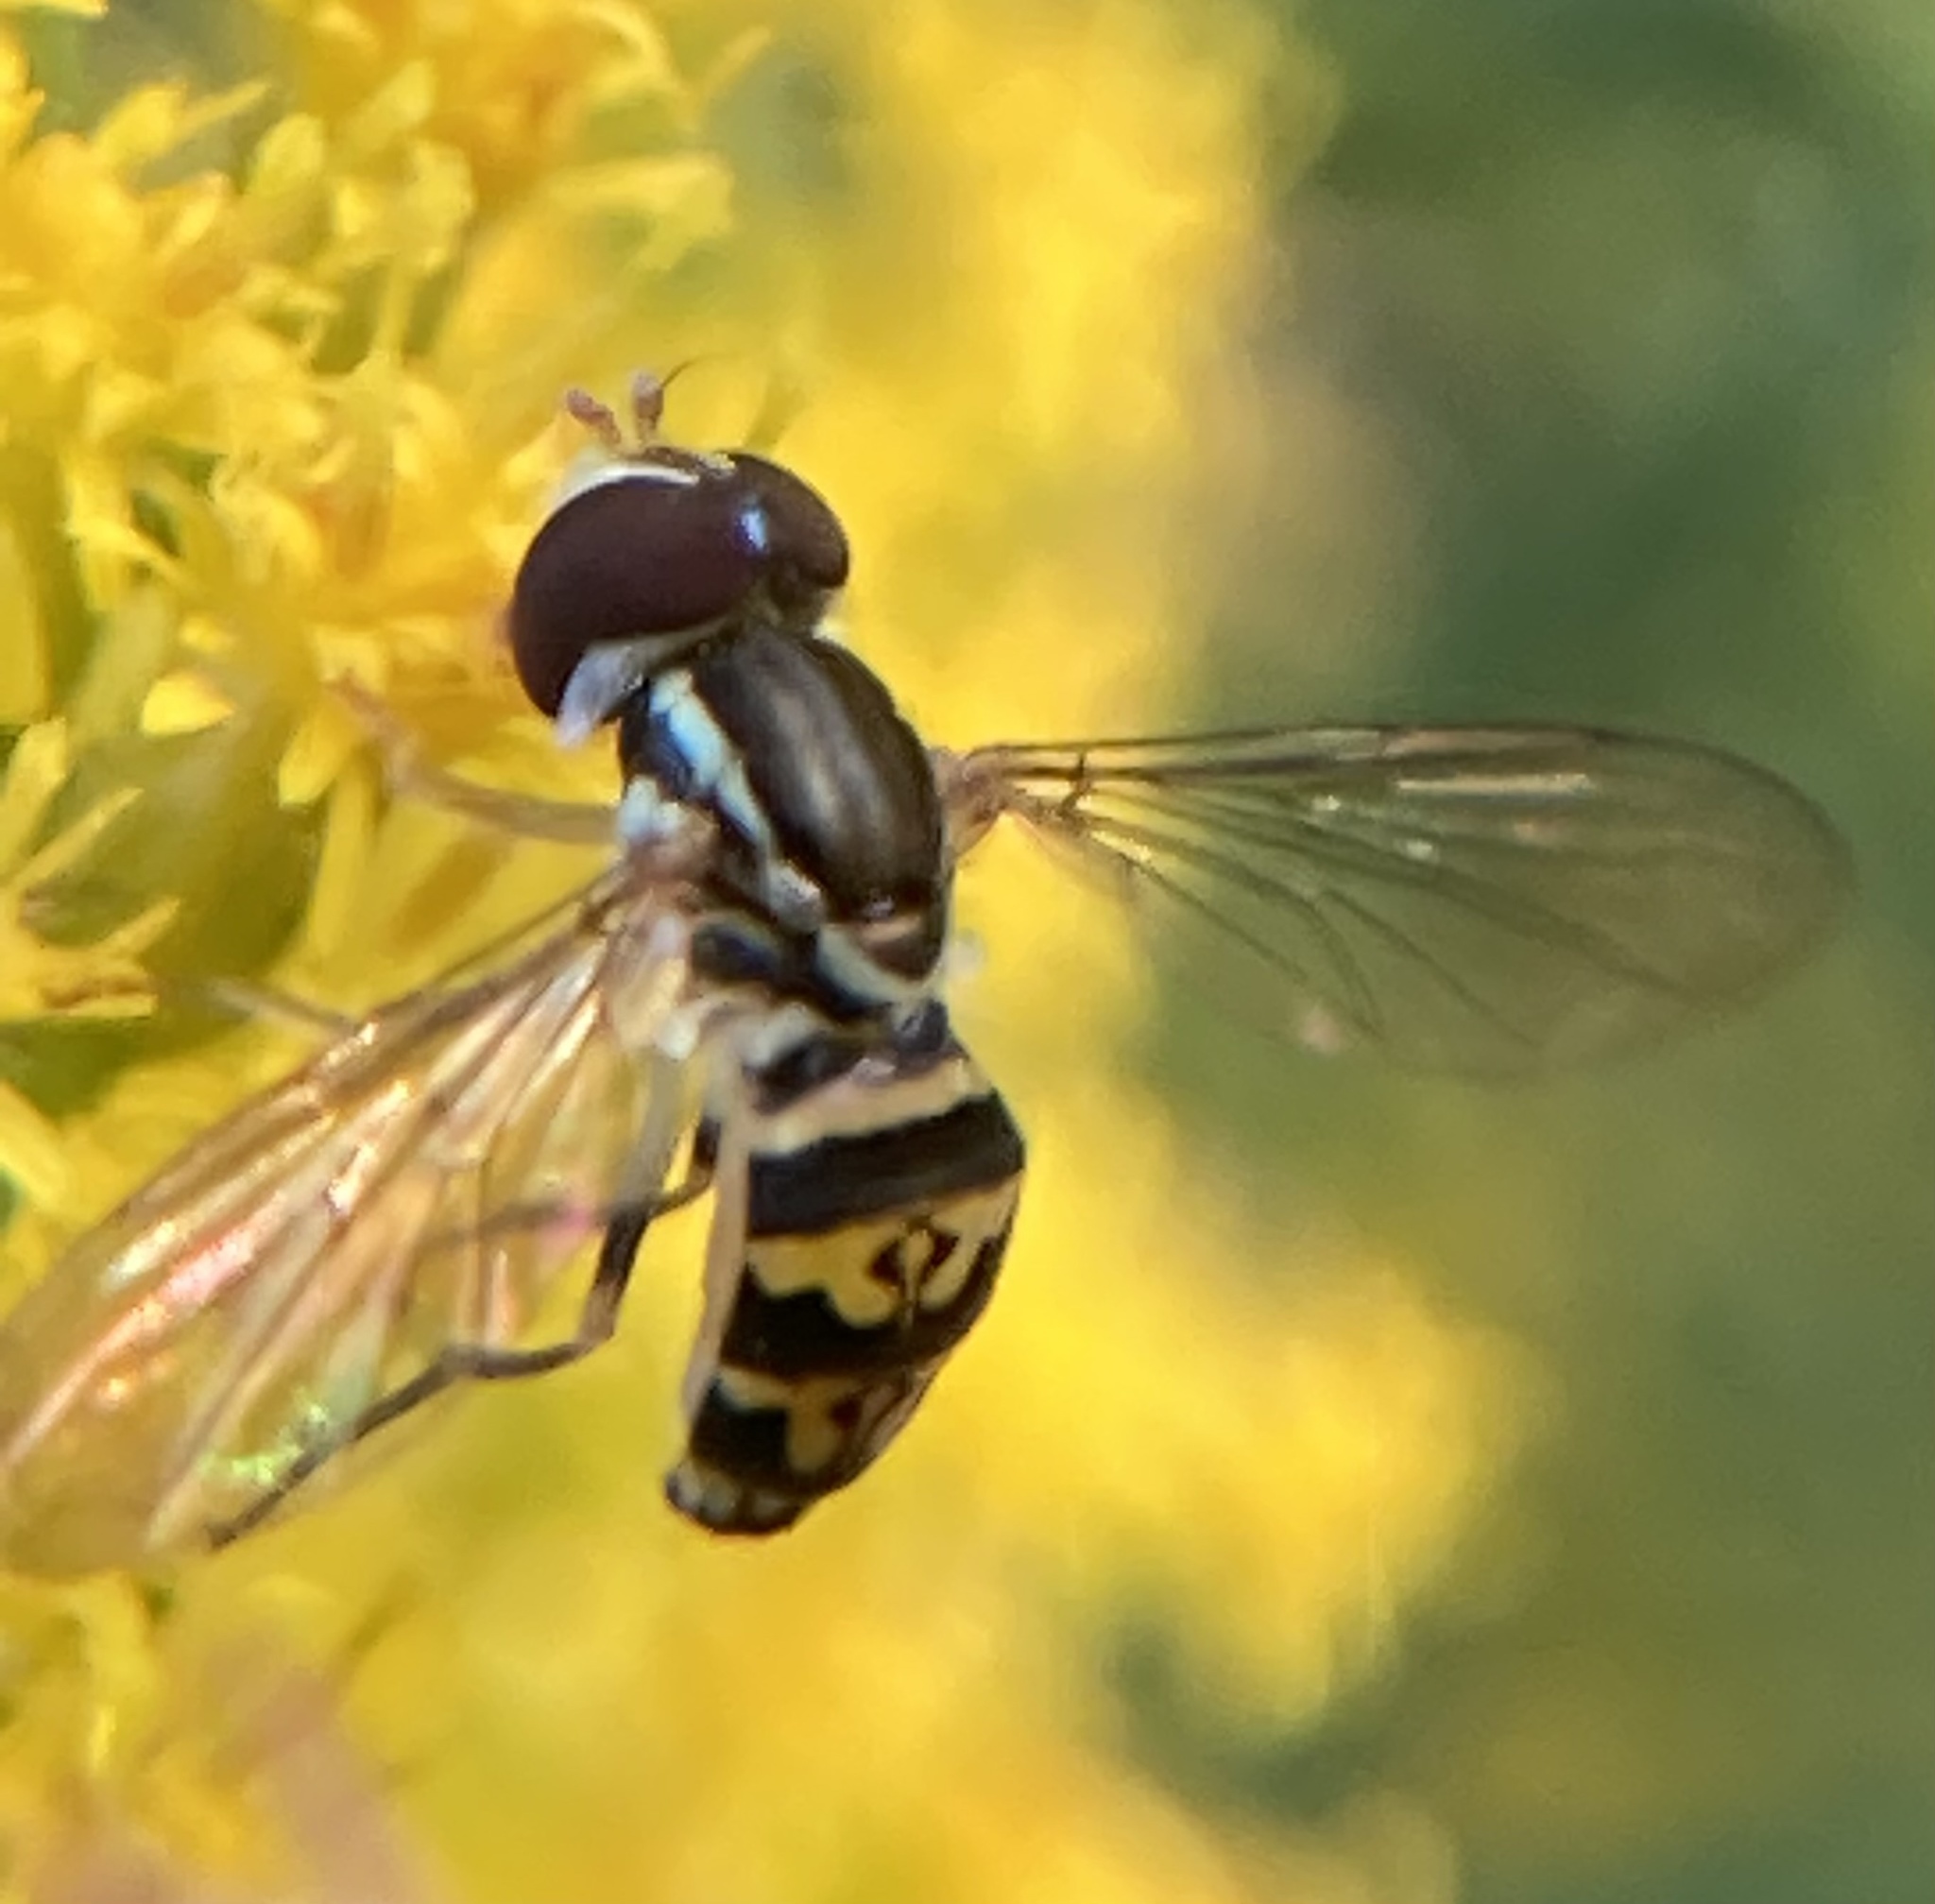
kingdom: Animalia
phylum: Arthropoda
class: Insecta
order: Diptera
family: Syrphidae
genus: Toxomerus
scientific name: Toxomerus geminatus
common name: Eastern calligrapher
